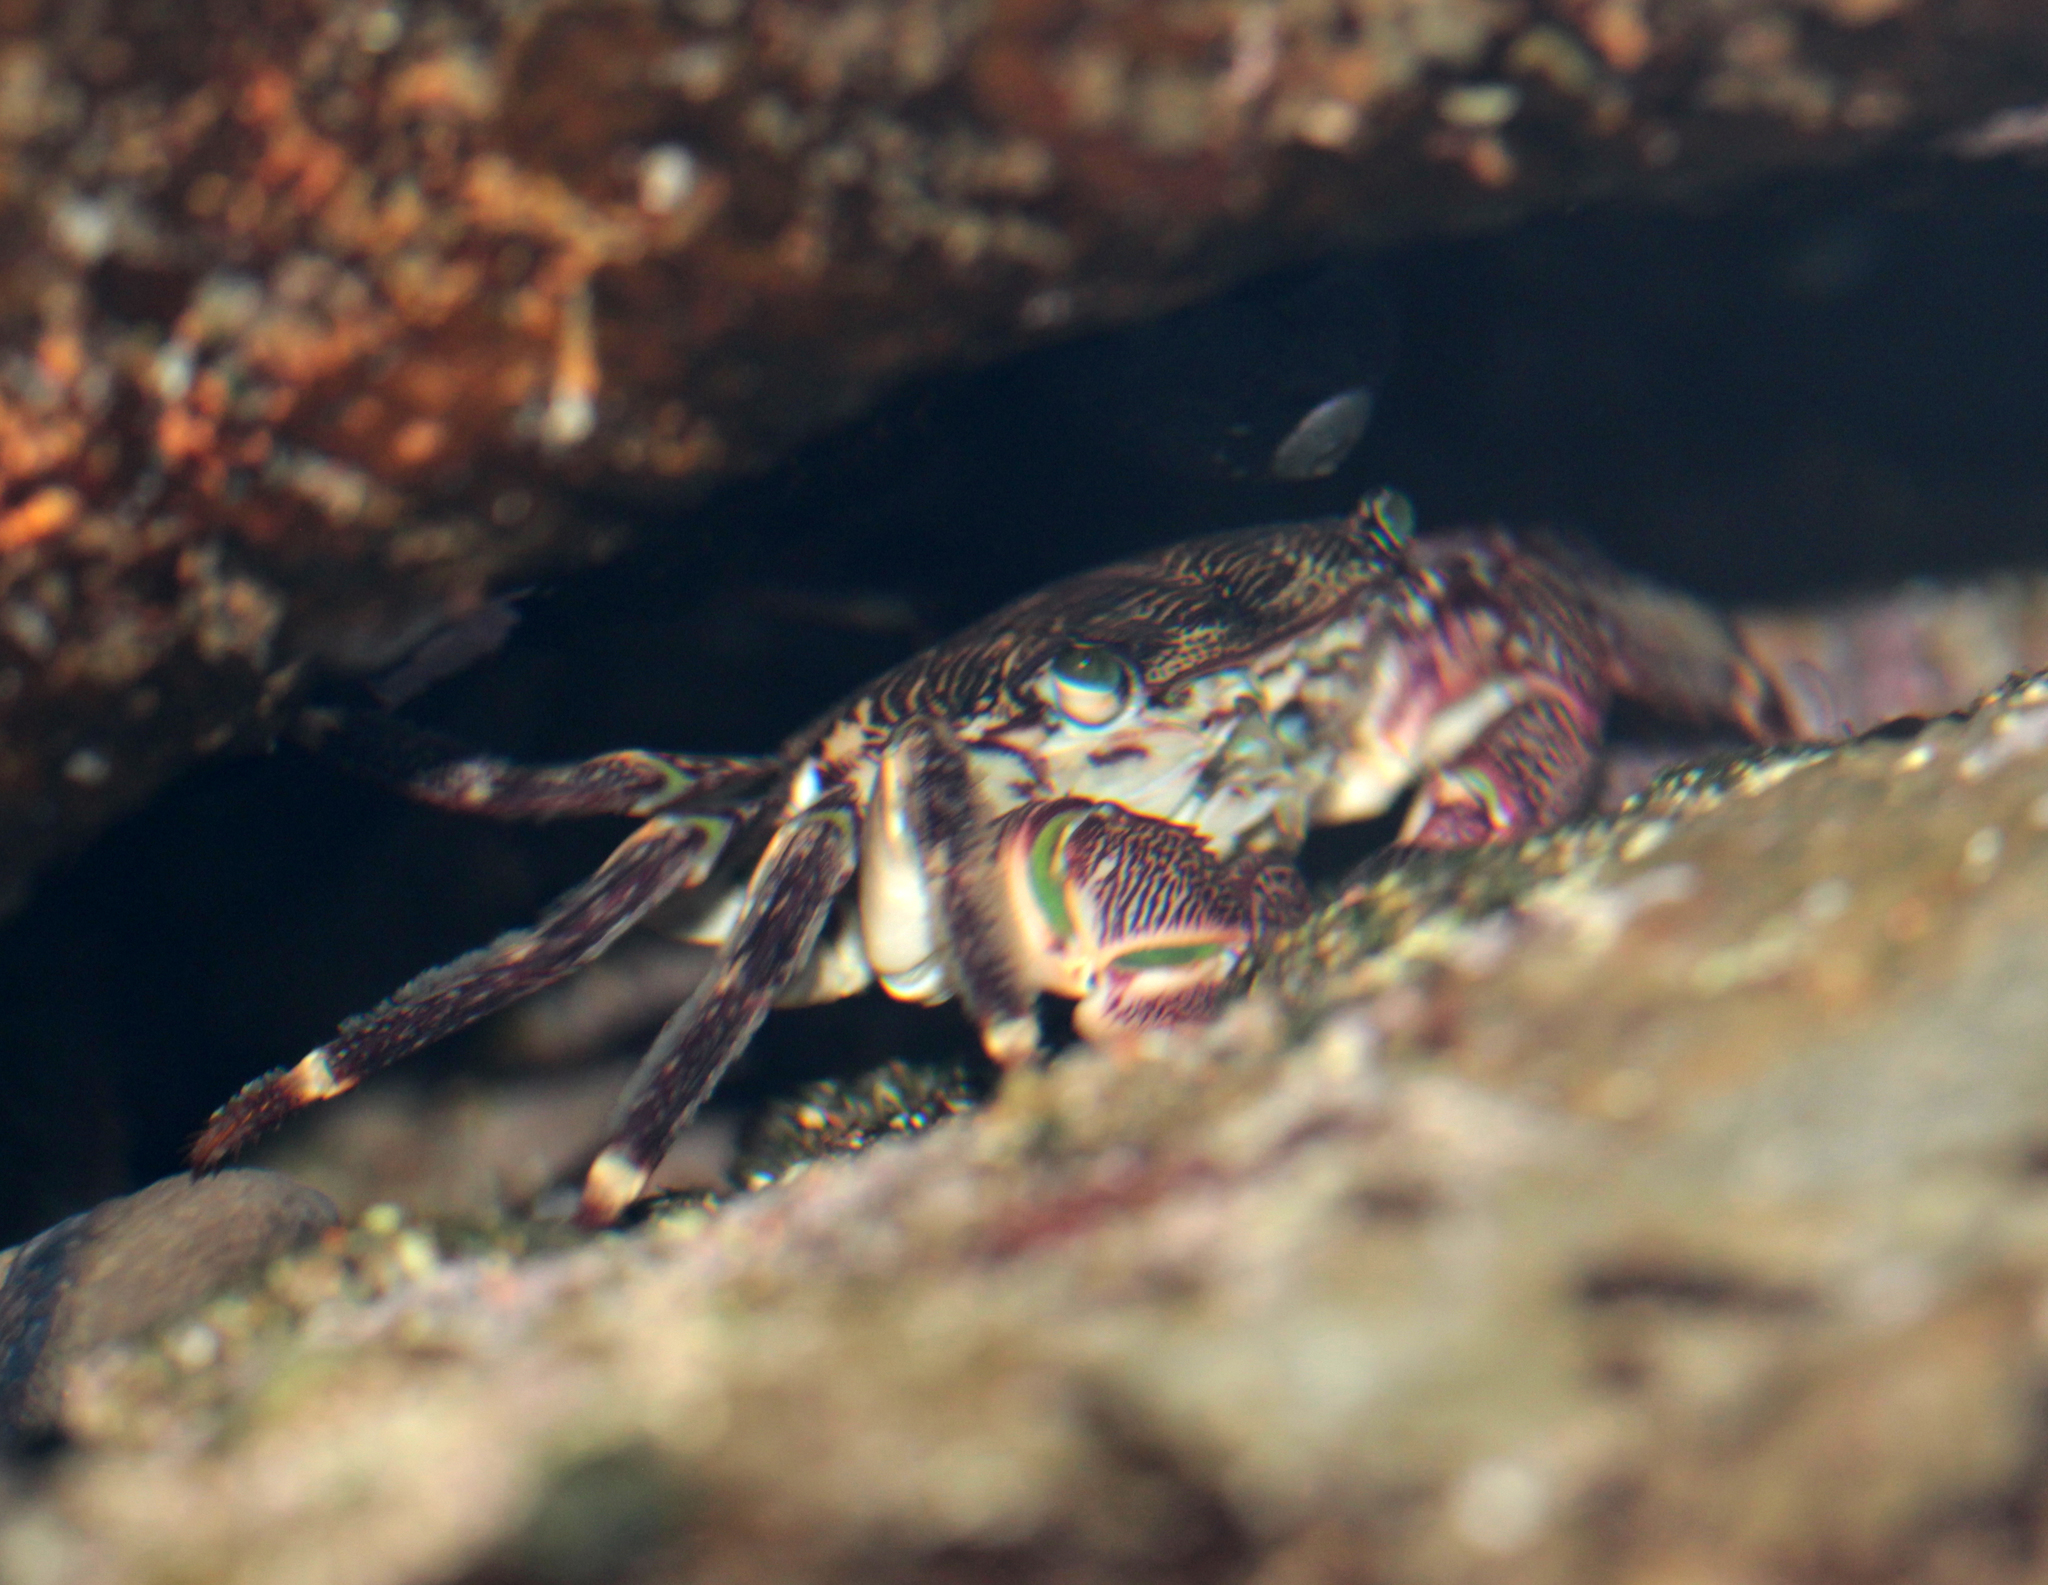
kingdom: Animalia
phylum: Arthropoda
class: Malacostraca
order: Decapoda
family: Grapsidae
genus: Pachygrapsus
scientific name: Pachygrapsus crassipes
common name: Striped shore crab
